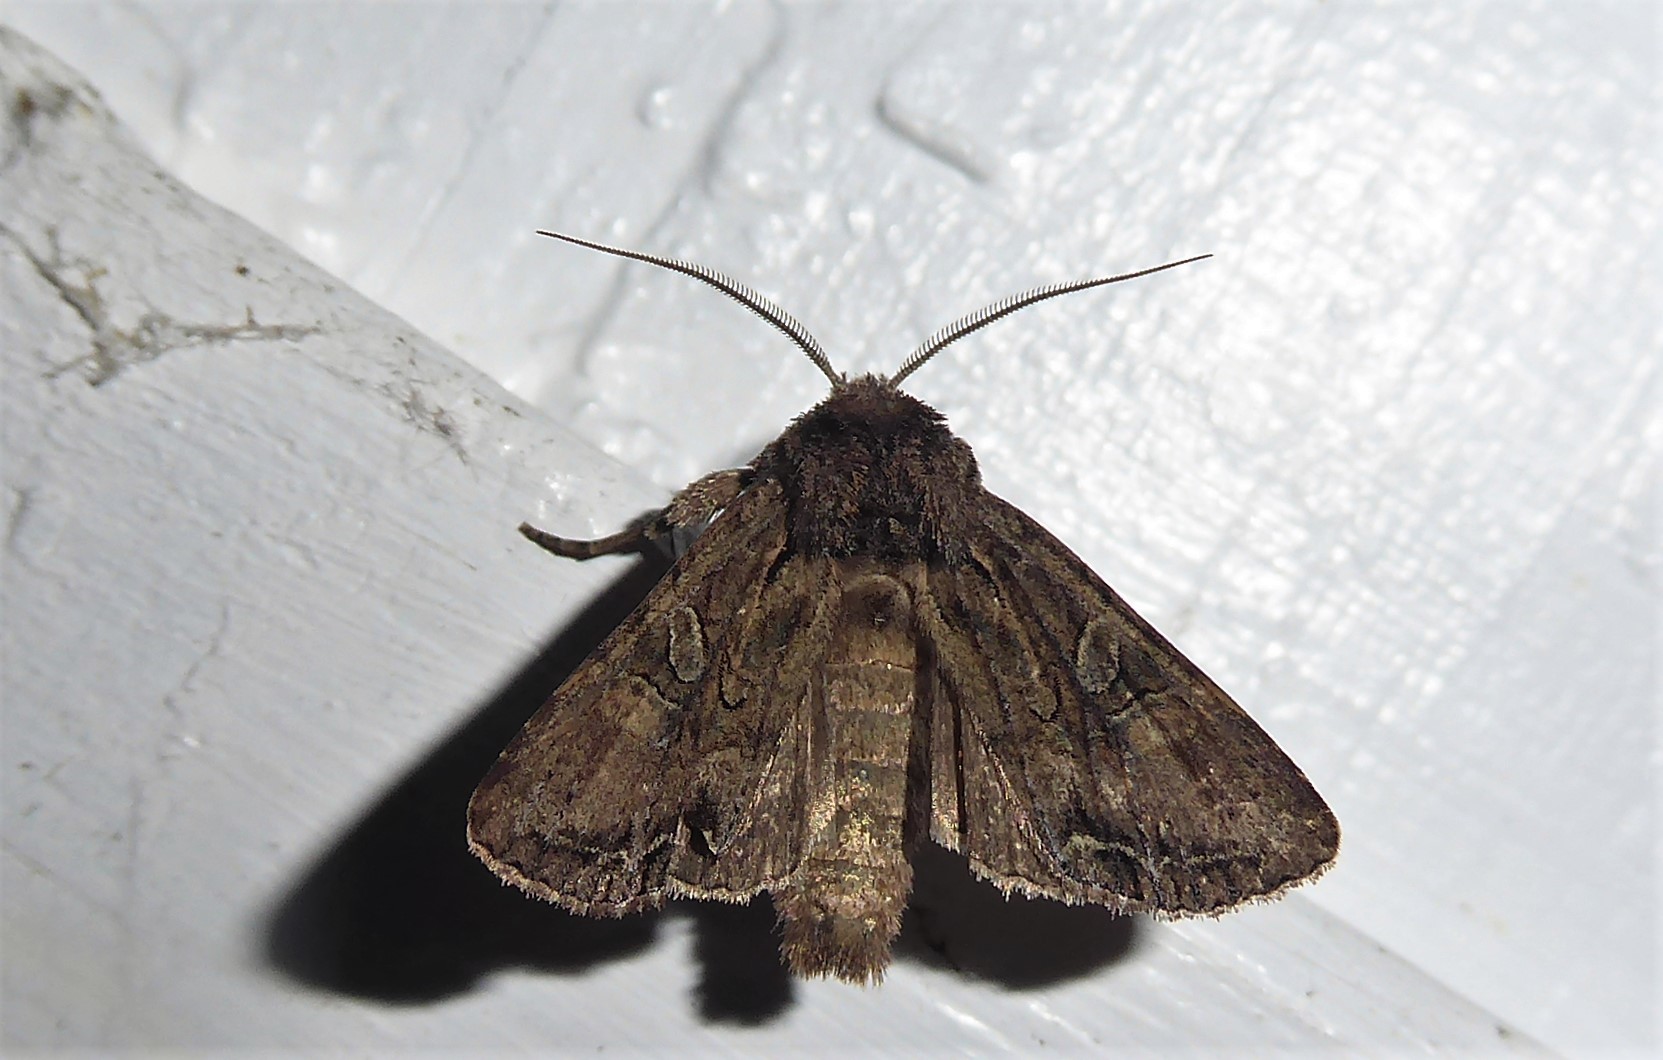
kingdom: Animalia
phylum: Arthropoda
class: Insecta
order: Lepidoptera
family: Noctuidae
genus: Ichneutica
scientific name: Ichneutica mutans
